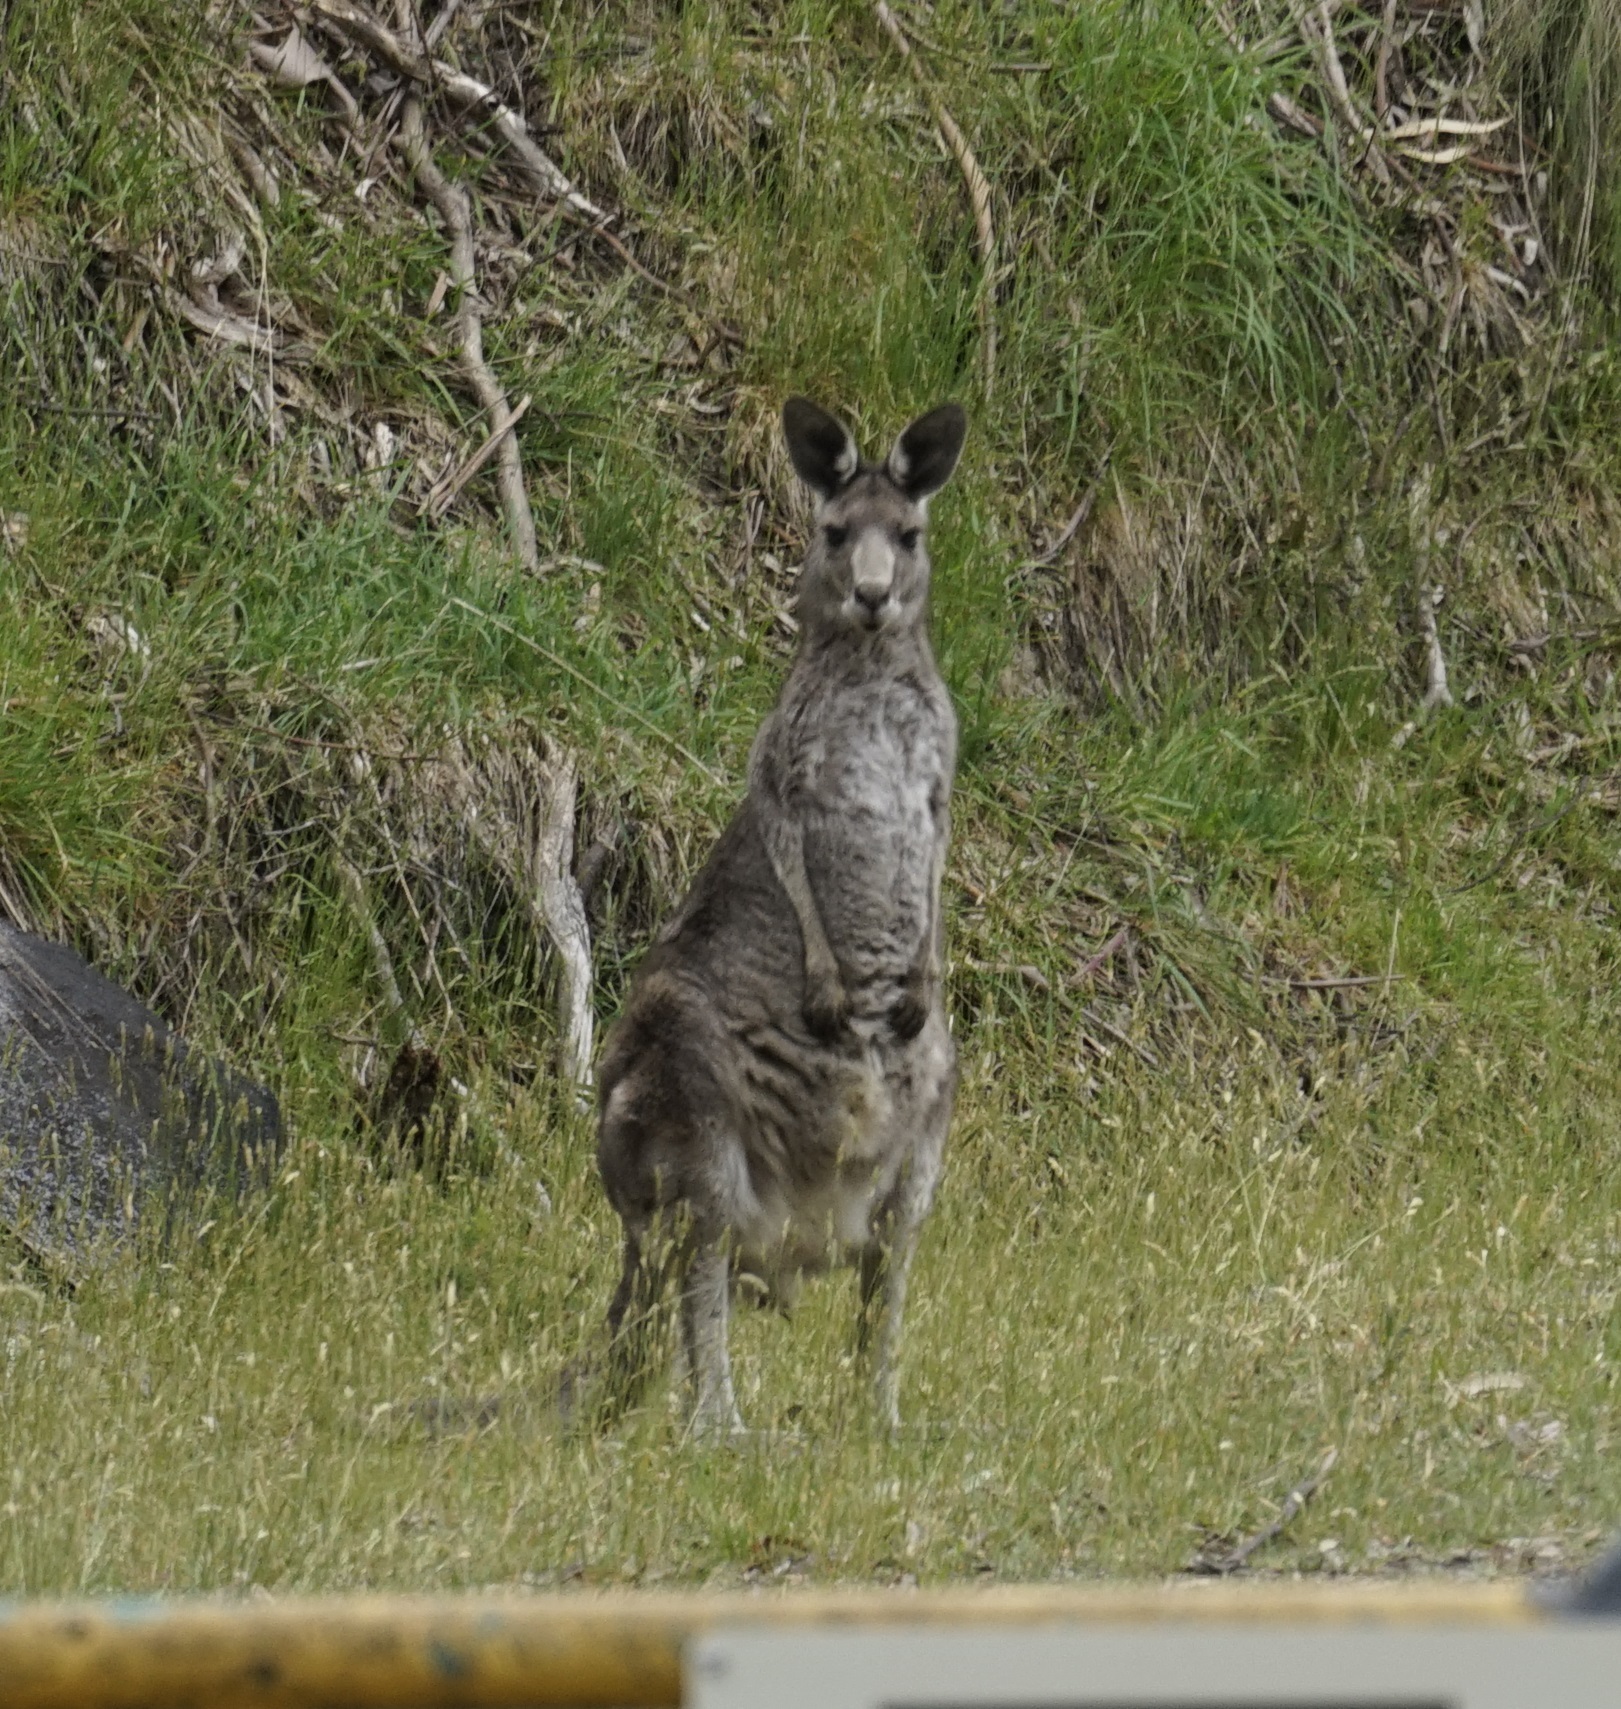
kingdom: Animalia
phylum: Chordata
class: Mammalia
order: Diprotodontia
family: Macropodidae
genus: Macropus
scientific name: Macropus giganteus
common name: Eastern grey kangaroo
